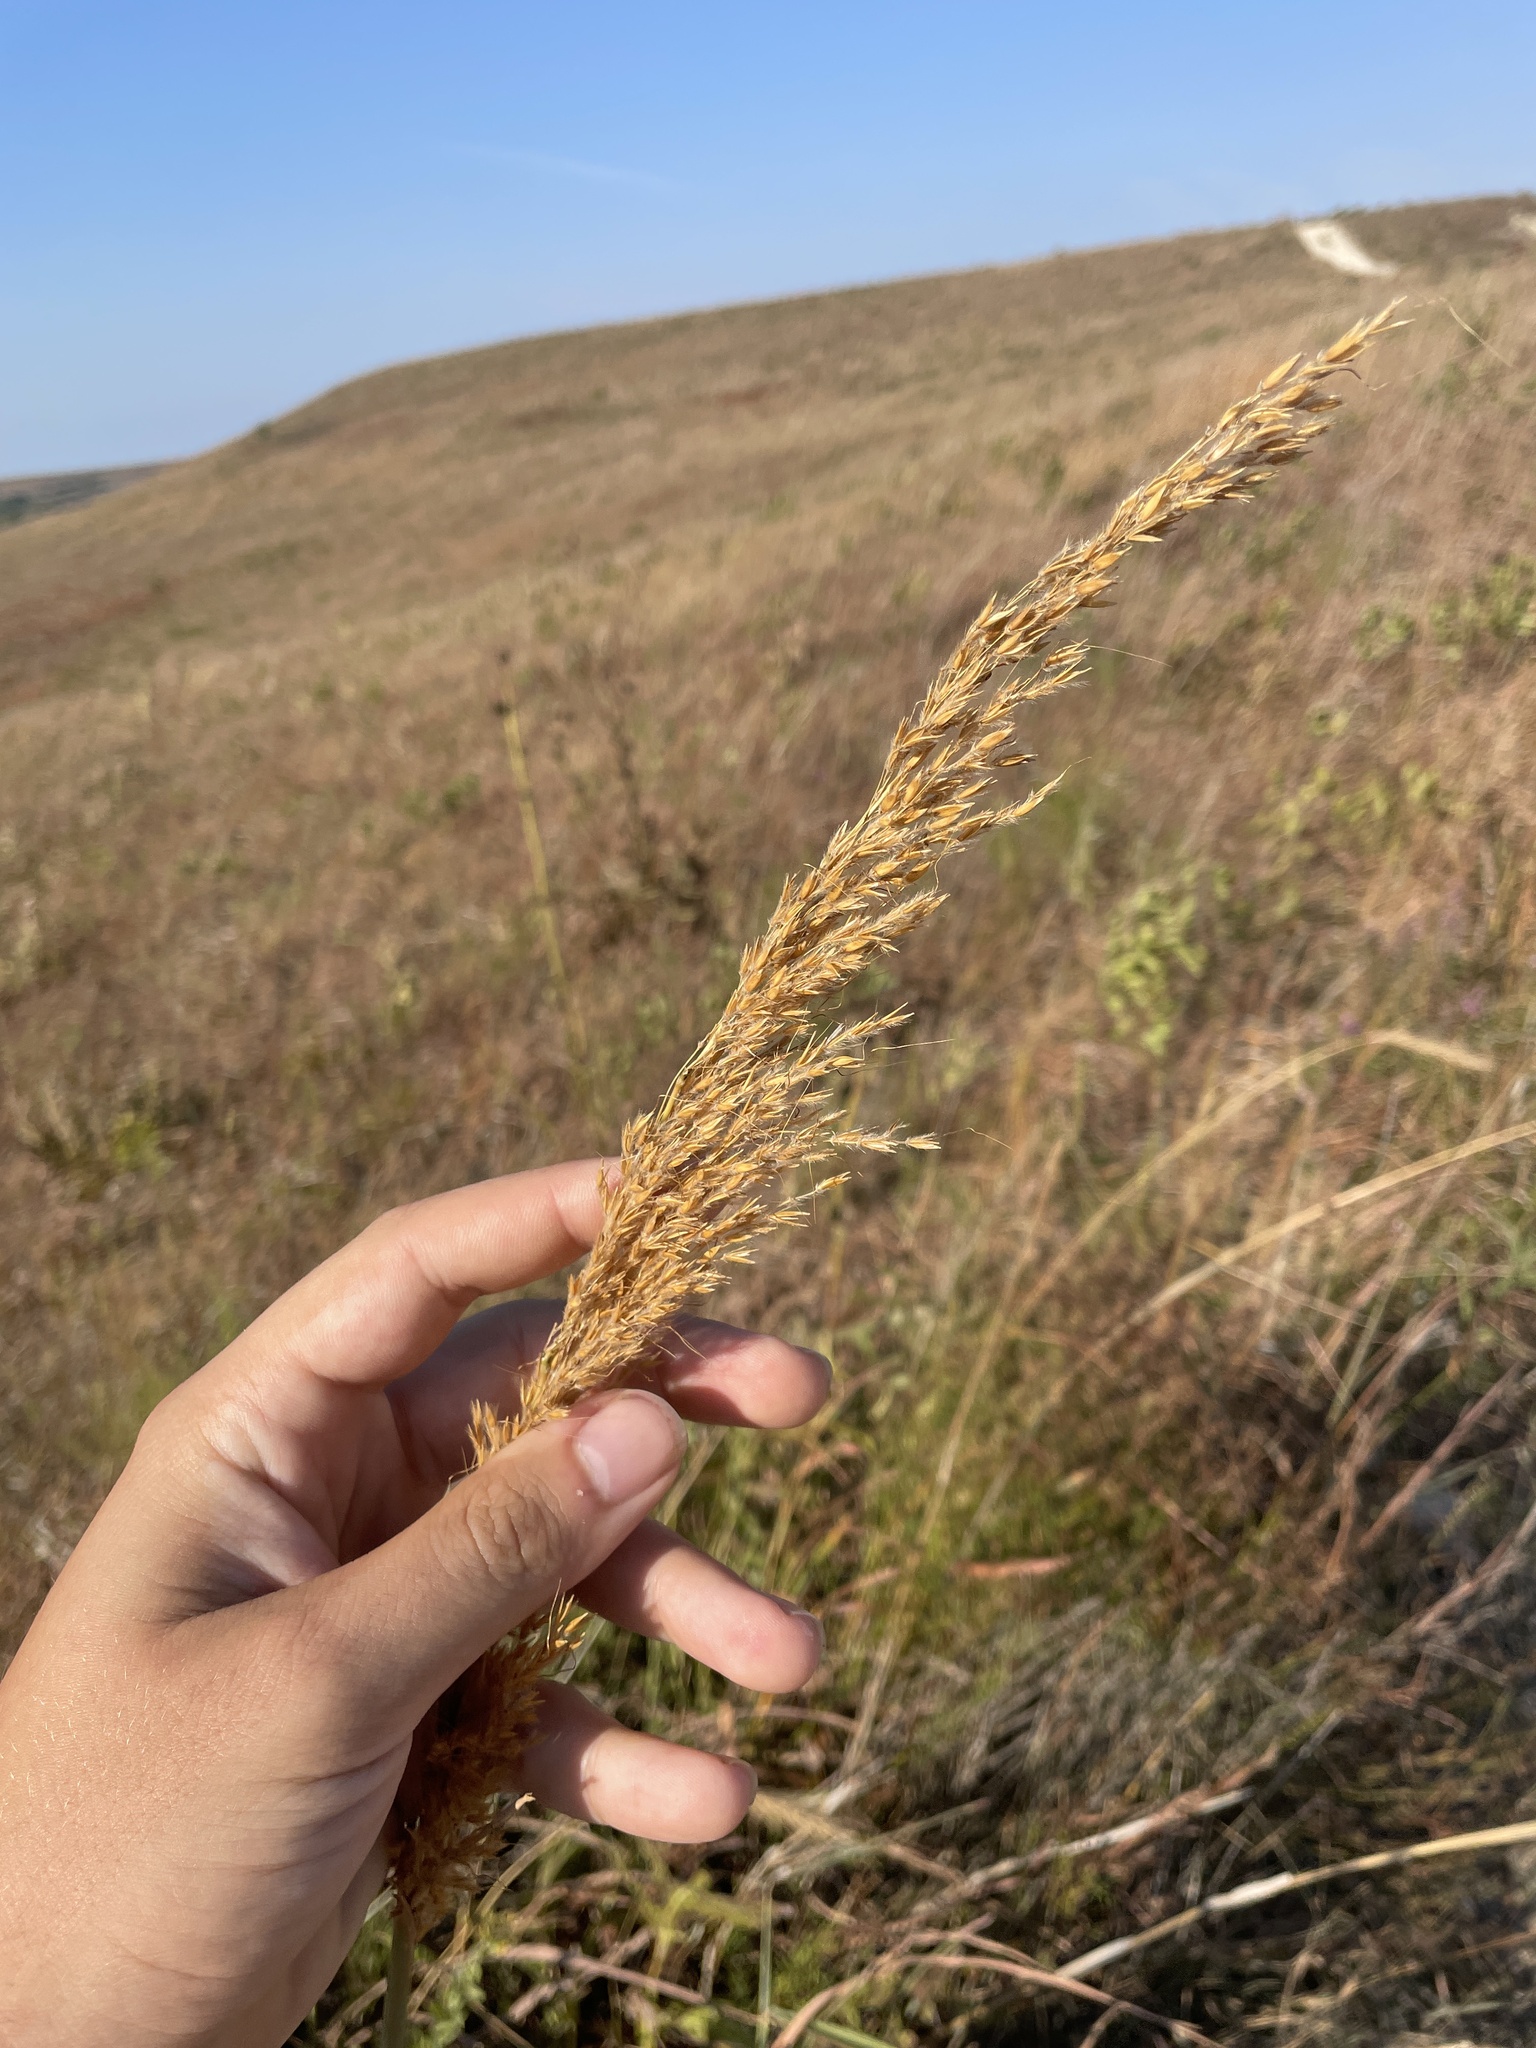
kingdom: Plantae
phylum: Tracheophyta
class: Liliopsida
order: Poales
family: Poaceae
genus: Sorghastrum
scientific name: Sorghastrum nutans
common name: Indian grass
